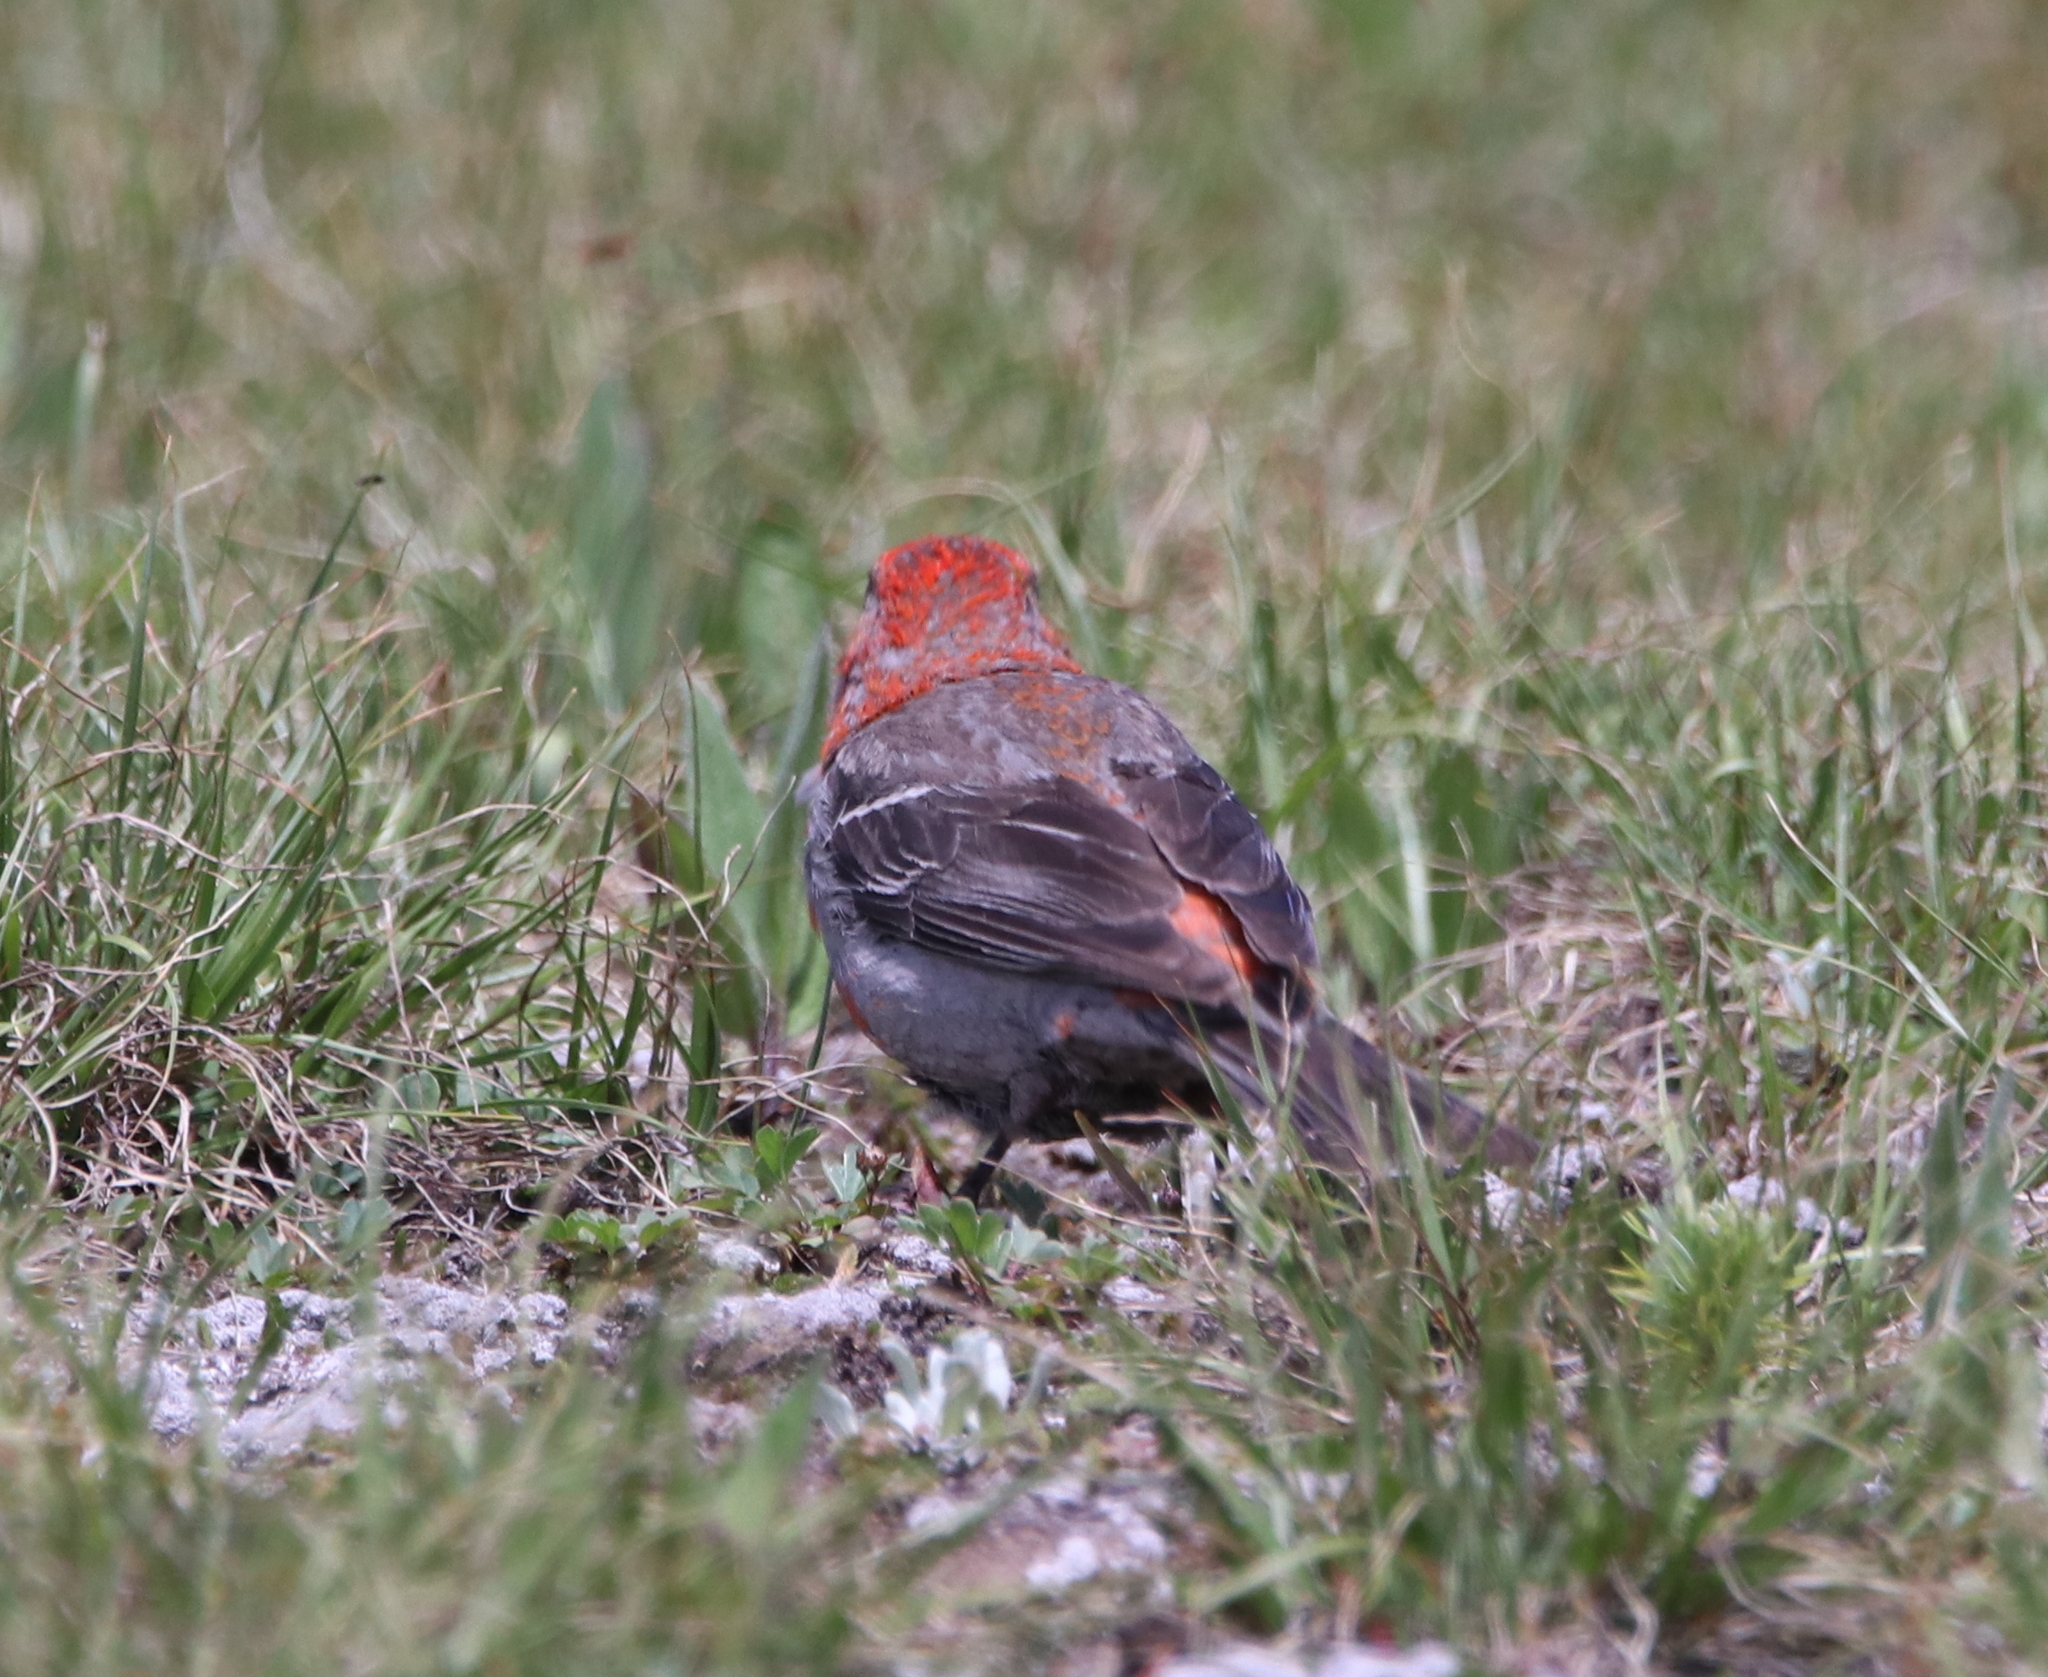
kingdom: Animalia
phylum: Chordata
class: Aves
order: Passeriformes
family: Fringillidae
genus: Pinicola
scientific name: Pinicola enucleator
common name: Pine grosbeak
